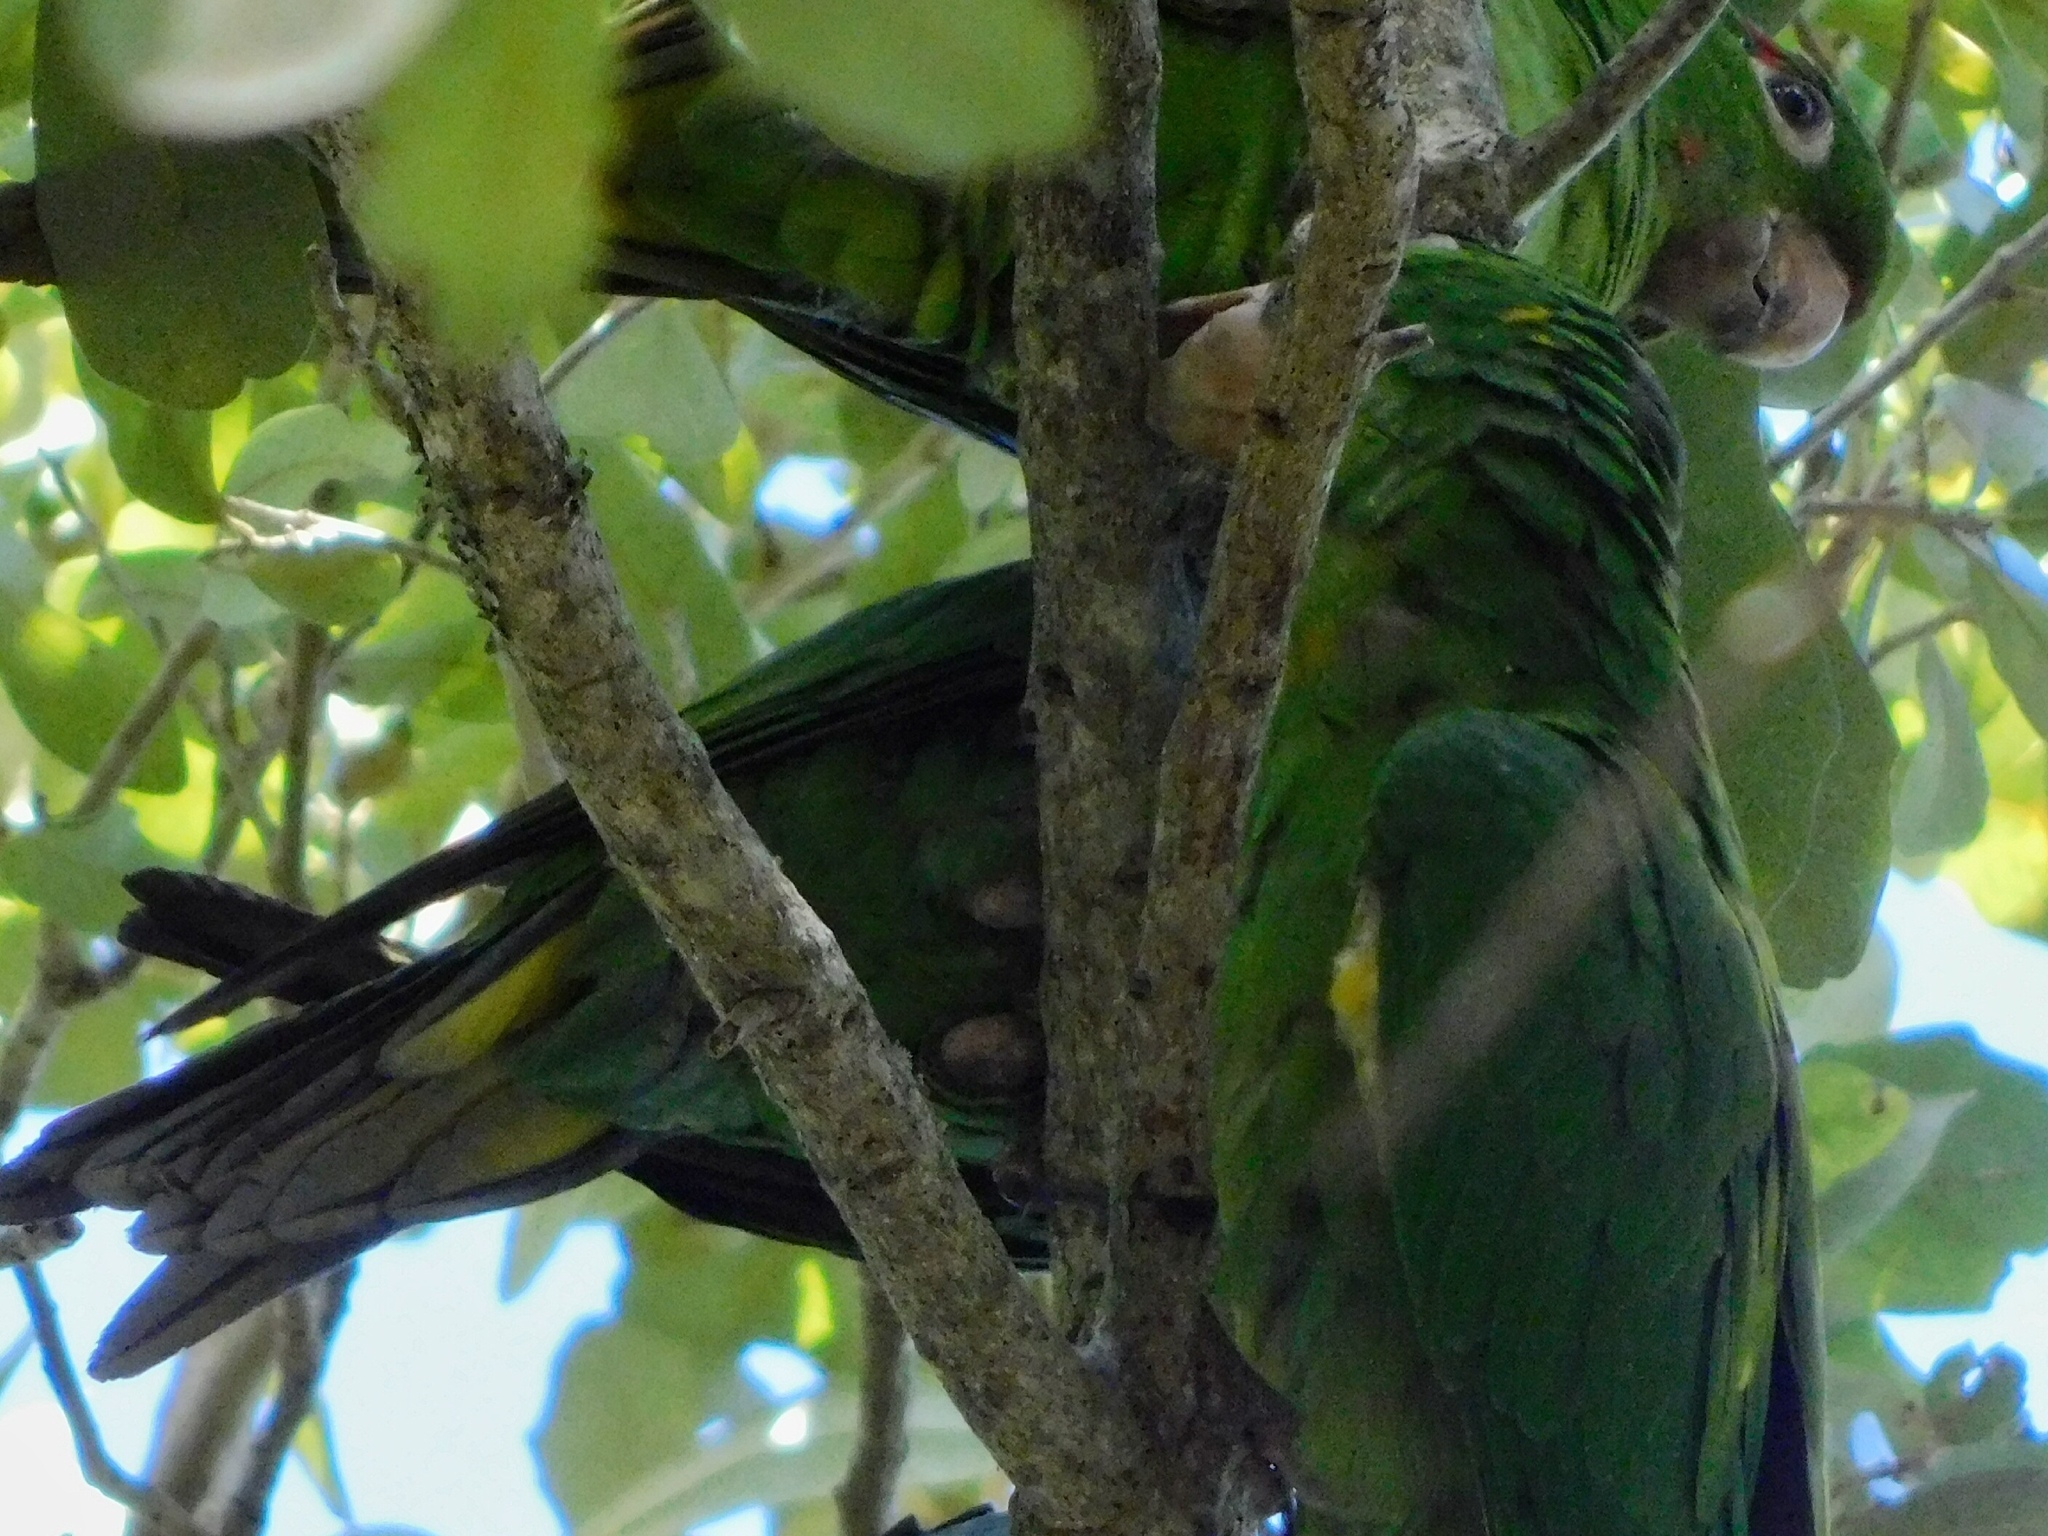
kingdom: Animalia
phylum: Chordata
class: Aves
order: Psittaciformes
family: Psittacidae
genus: Aratinga
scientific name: Aratinga leucophthalma
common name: White-eyed parakeet
